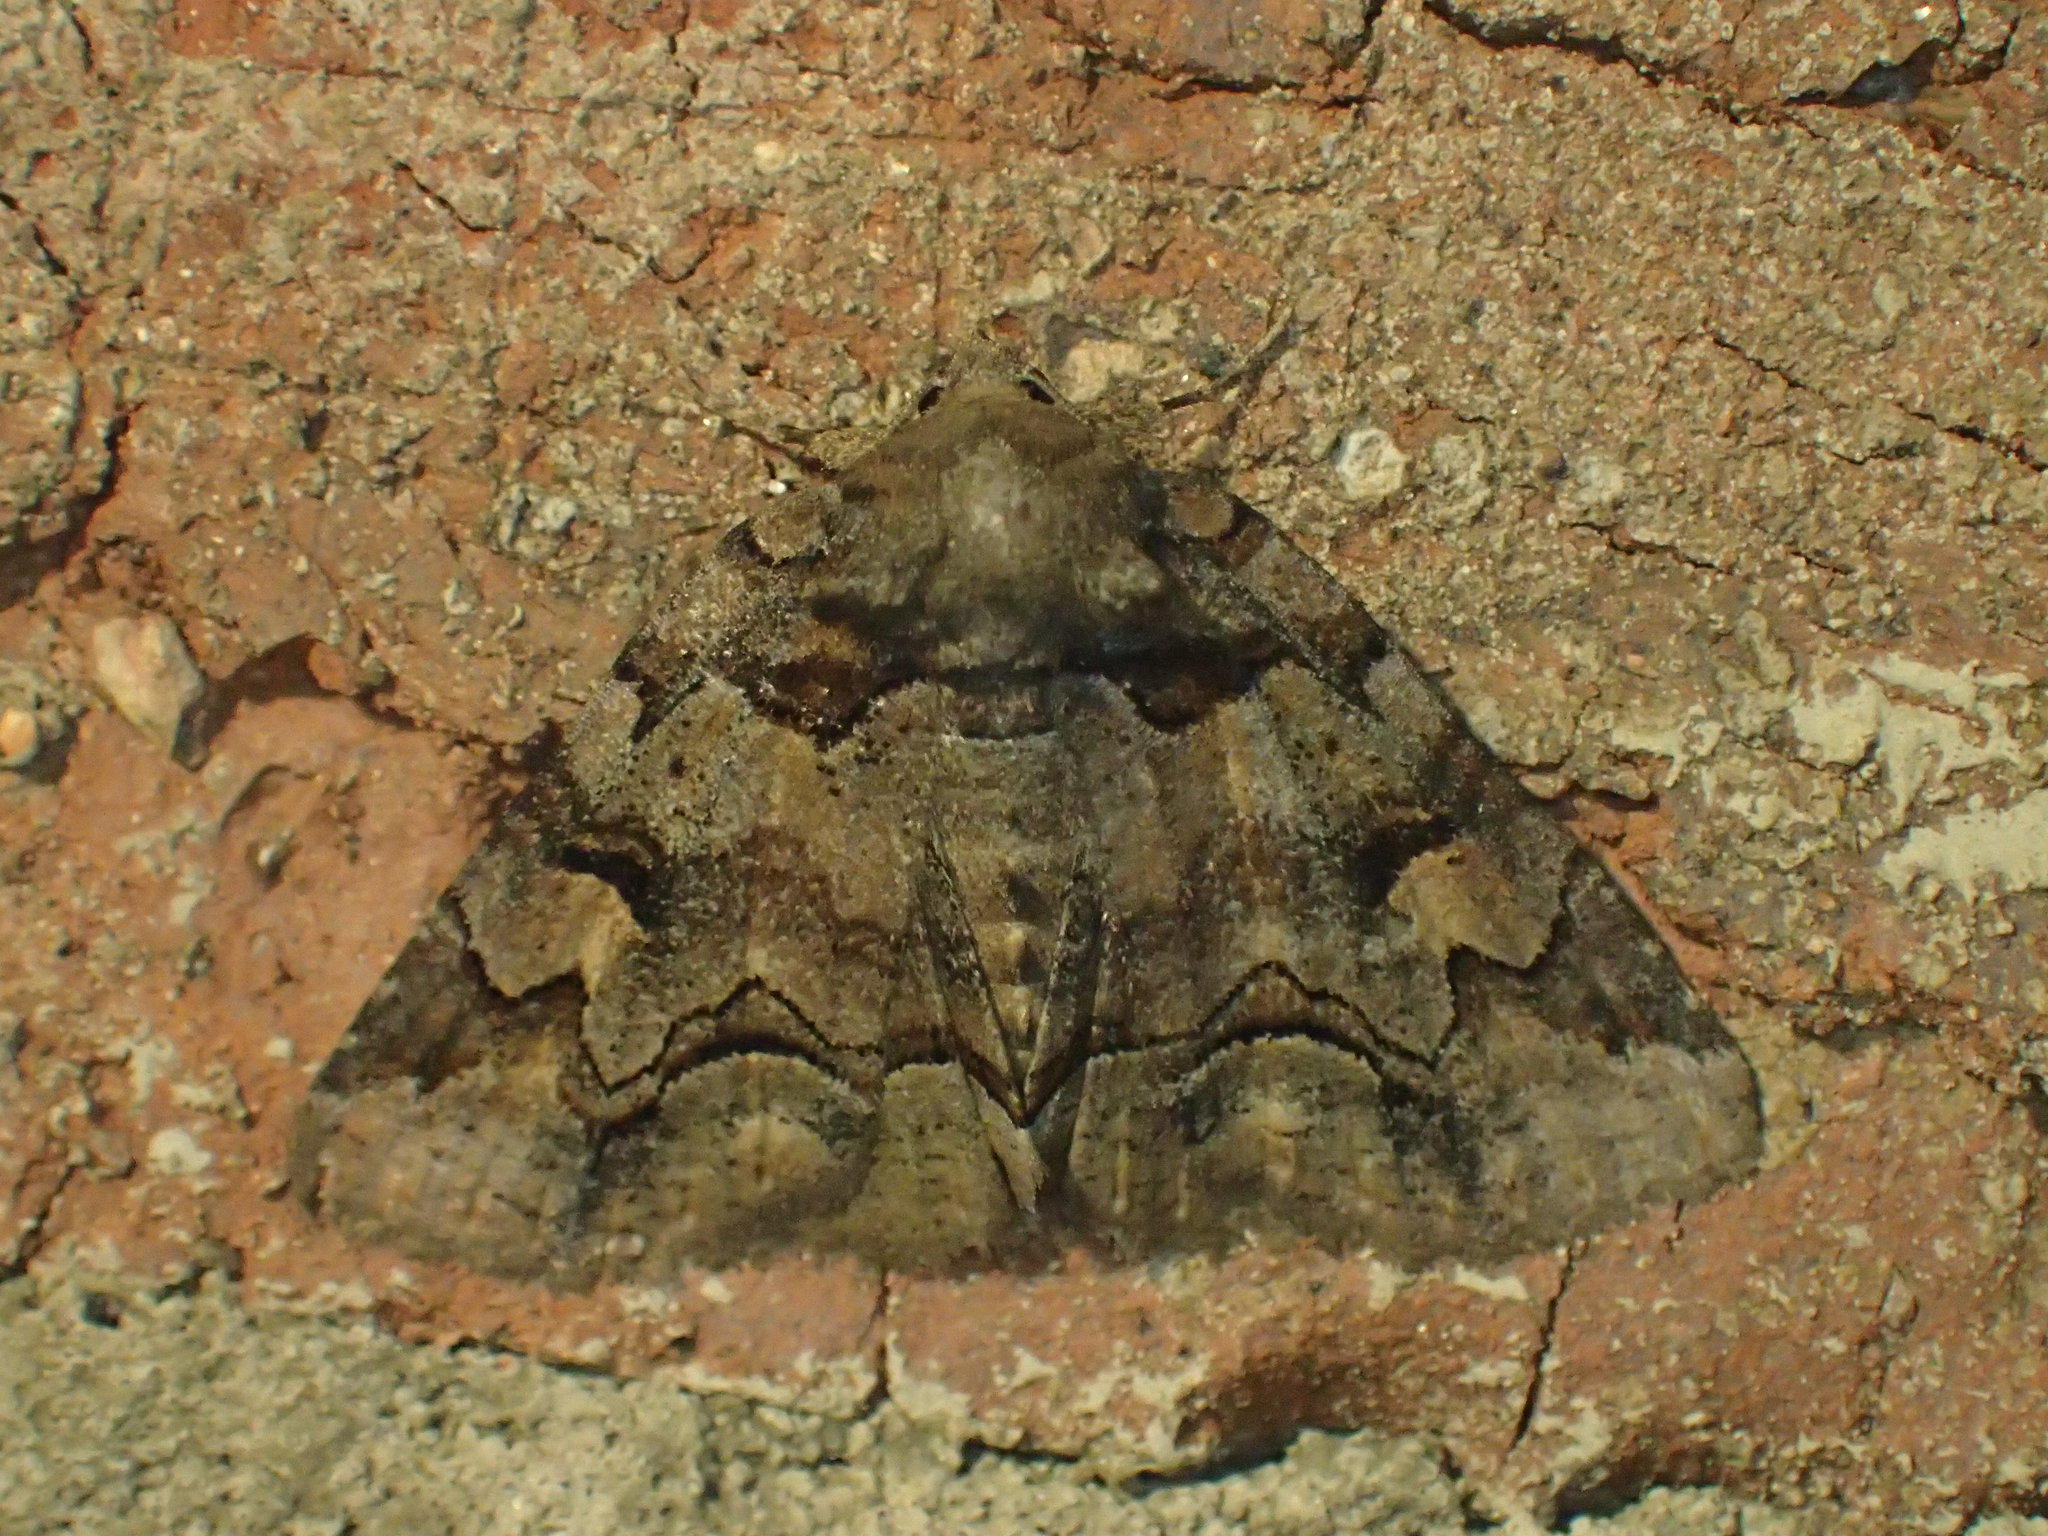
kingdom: Animalia
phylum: Arthropoda
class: Insecta
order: Lepidoptera
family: Erebidae
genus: Zale
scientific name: Zale helata
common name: Brown-spotted zale moth
